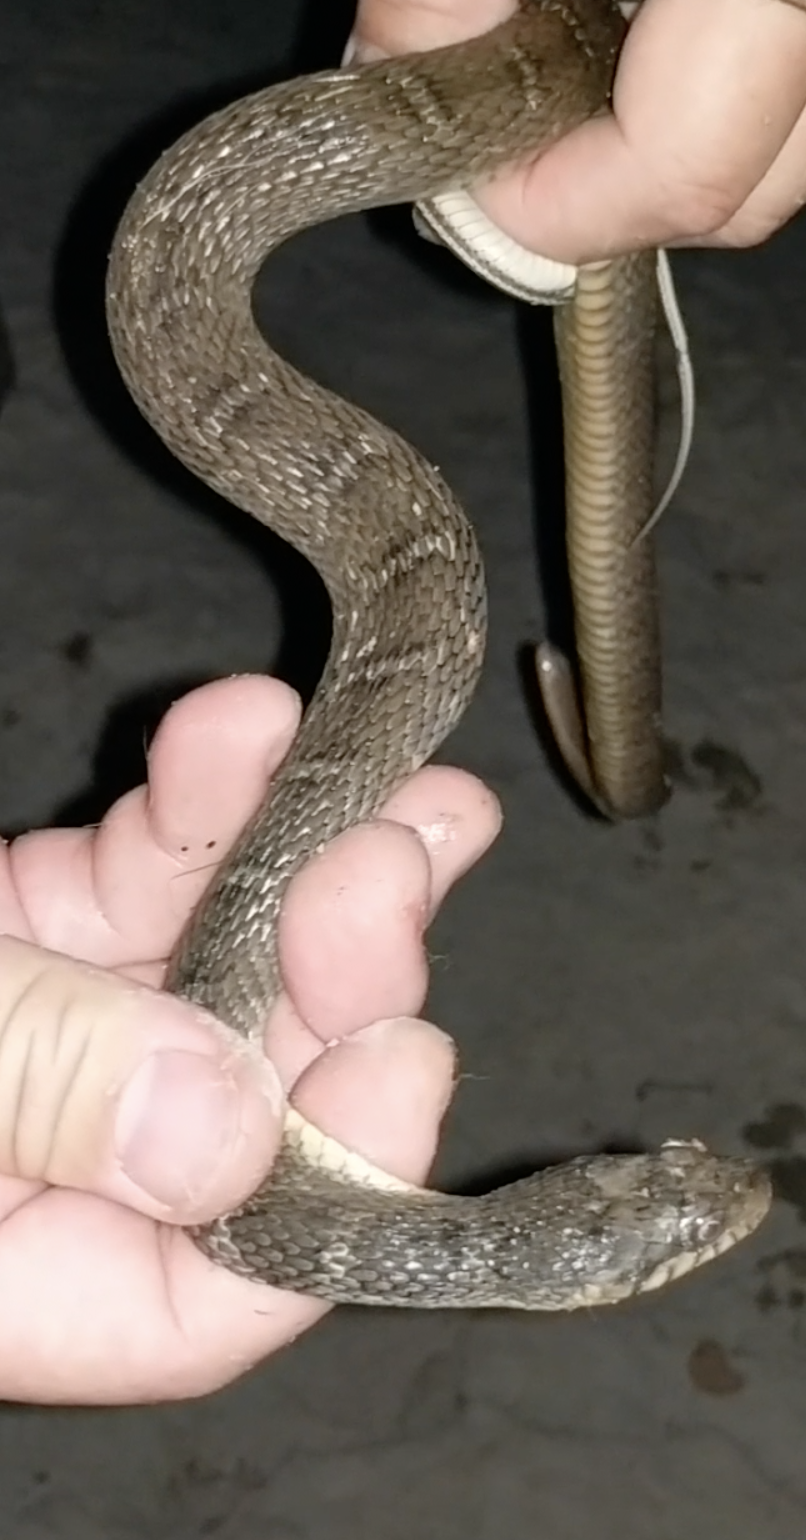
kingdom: Animalia
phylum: Chordata
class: Squamata
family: Colubridae
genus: Nerodia
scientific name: Nerodia erythrogaster
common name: Plainbelly water snake
